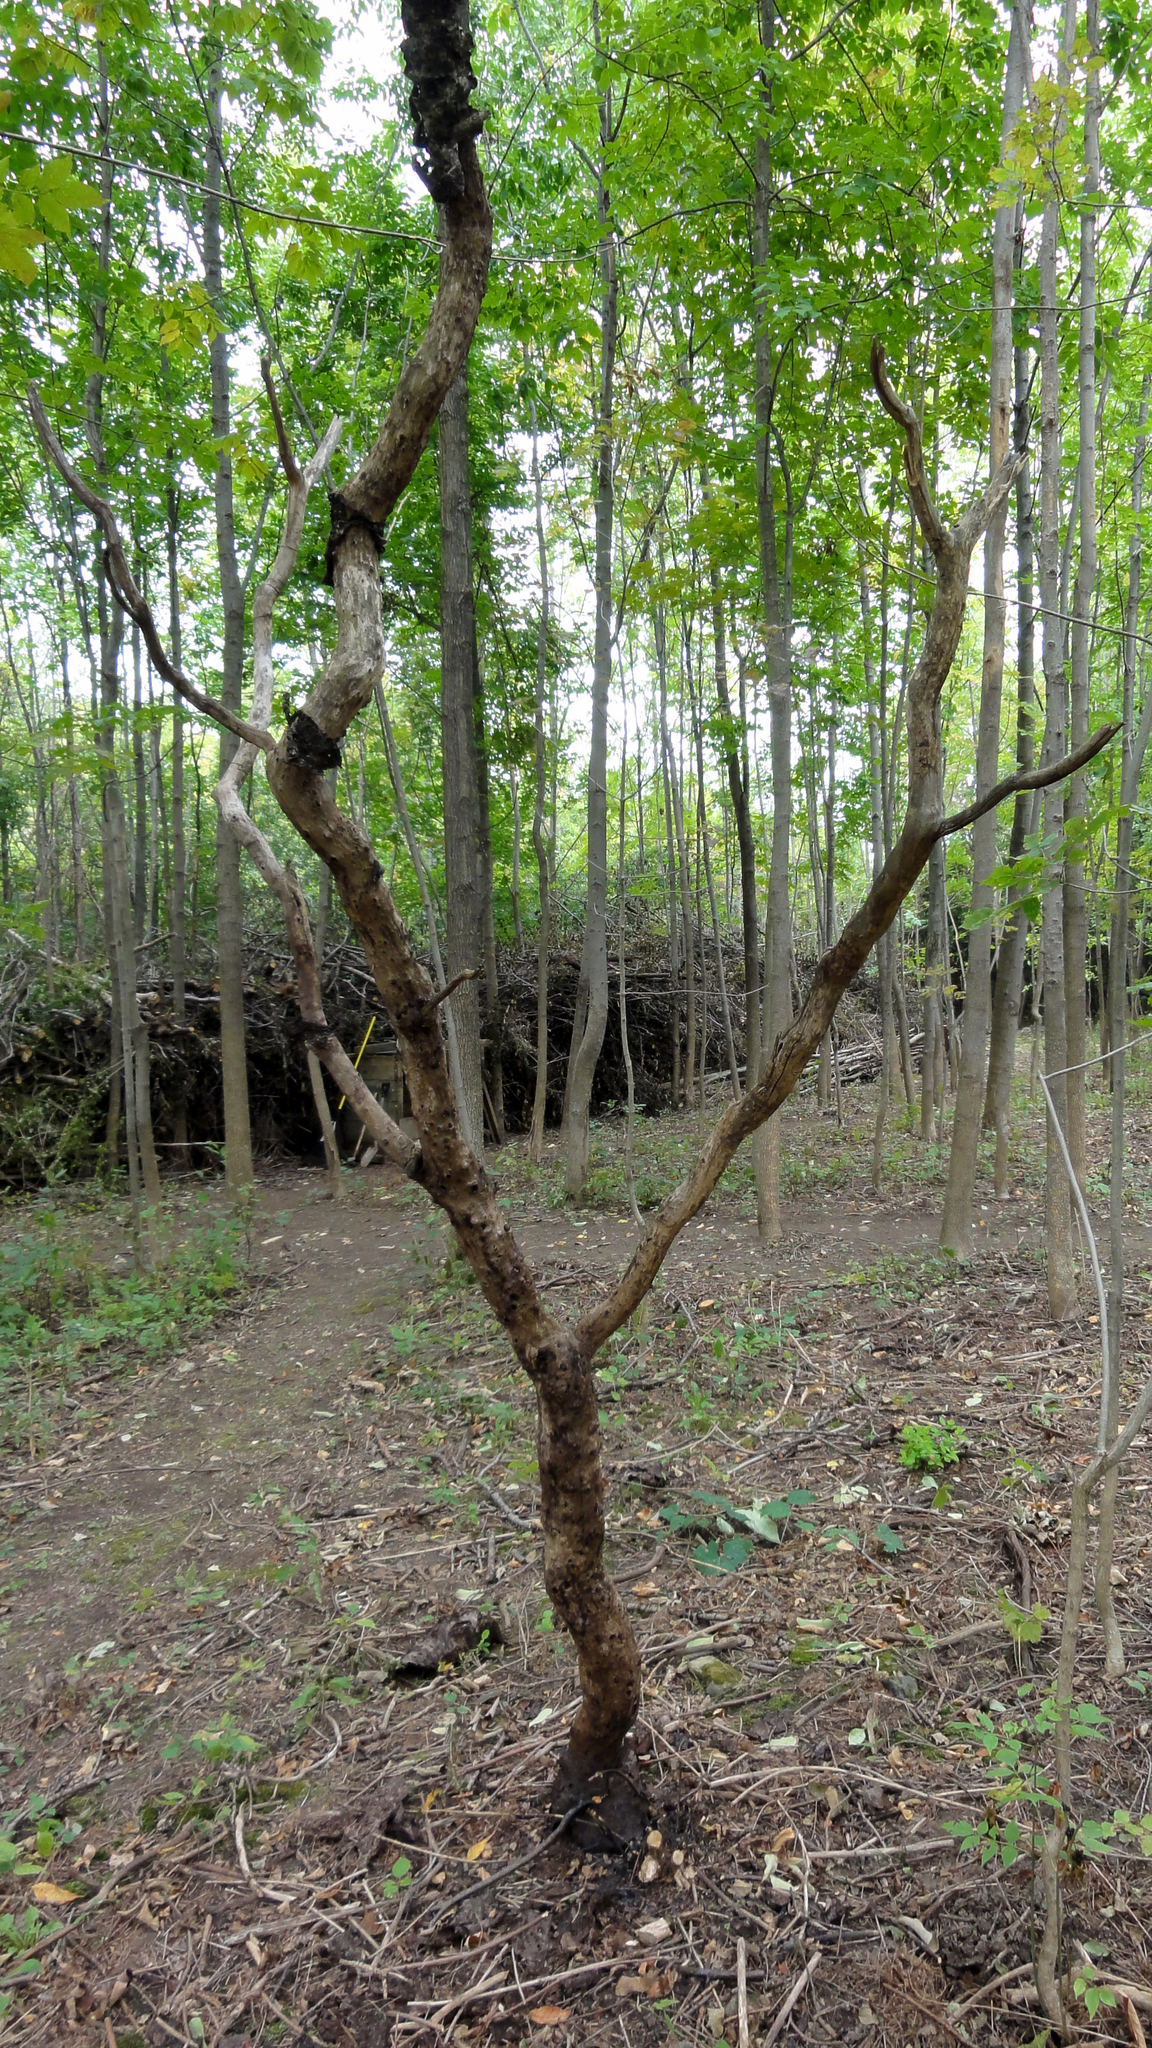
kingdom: Plantae
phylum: Tracheophyta
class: Magnoliopsida
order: Sapindales
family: Anacardiaceae
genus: Rhus
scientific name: Rhus typhina
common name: Staghorn sumac
